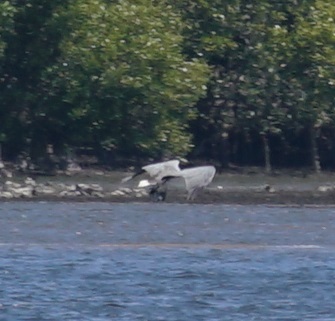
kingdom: Animalia
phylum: Chordata
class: Aves
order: Accipitriformes
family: Accipitridae
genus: Haliaeetus
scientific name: Haliaeetus leucogaster
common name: White-bellied sea eagle
